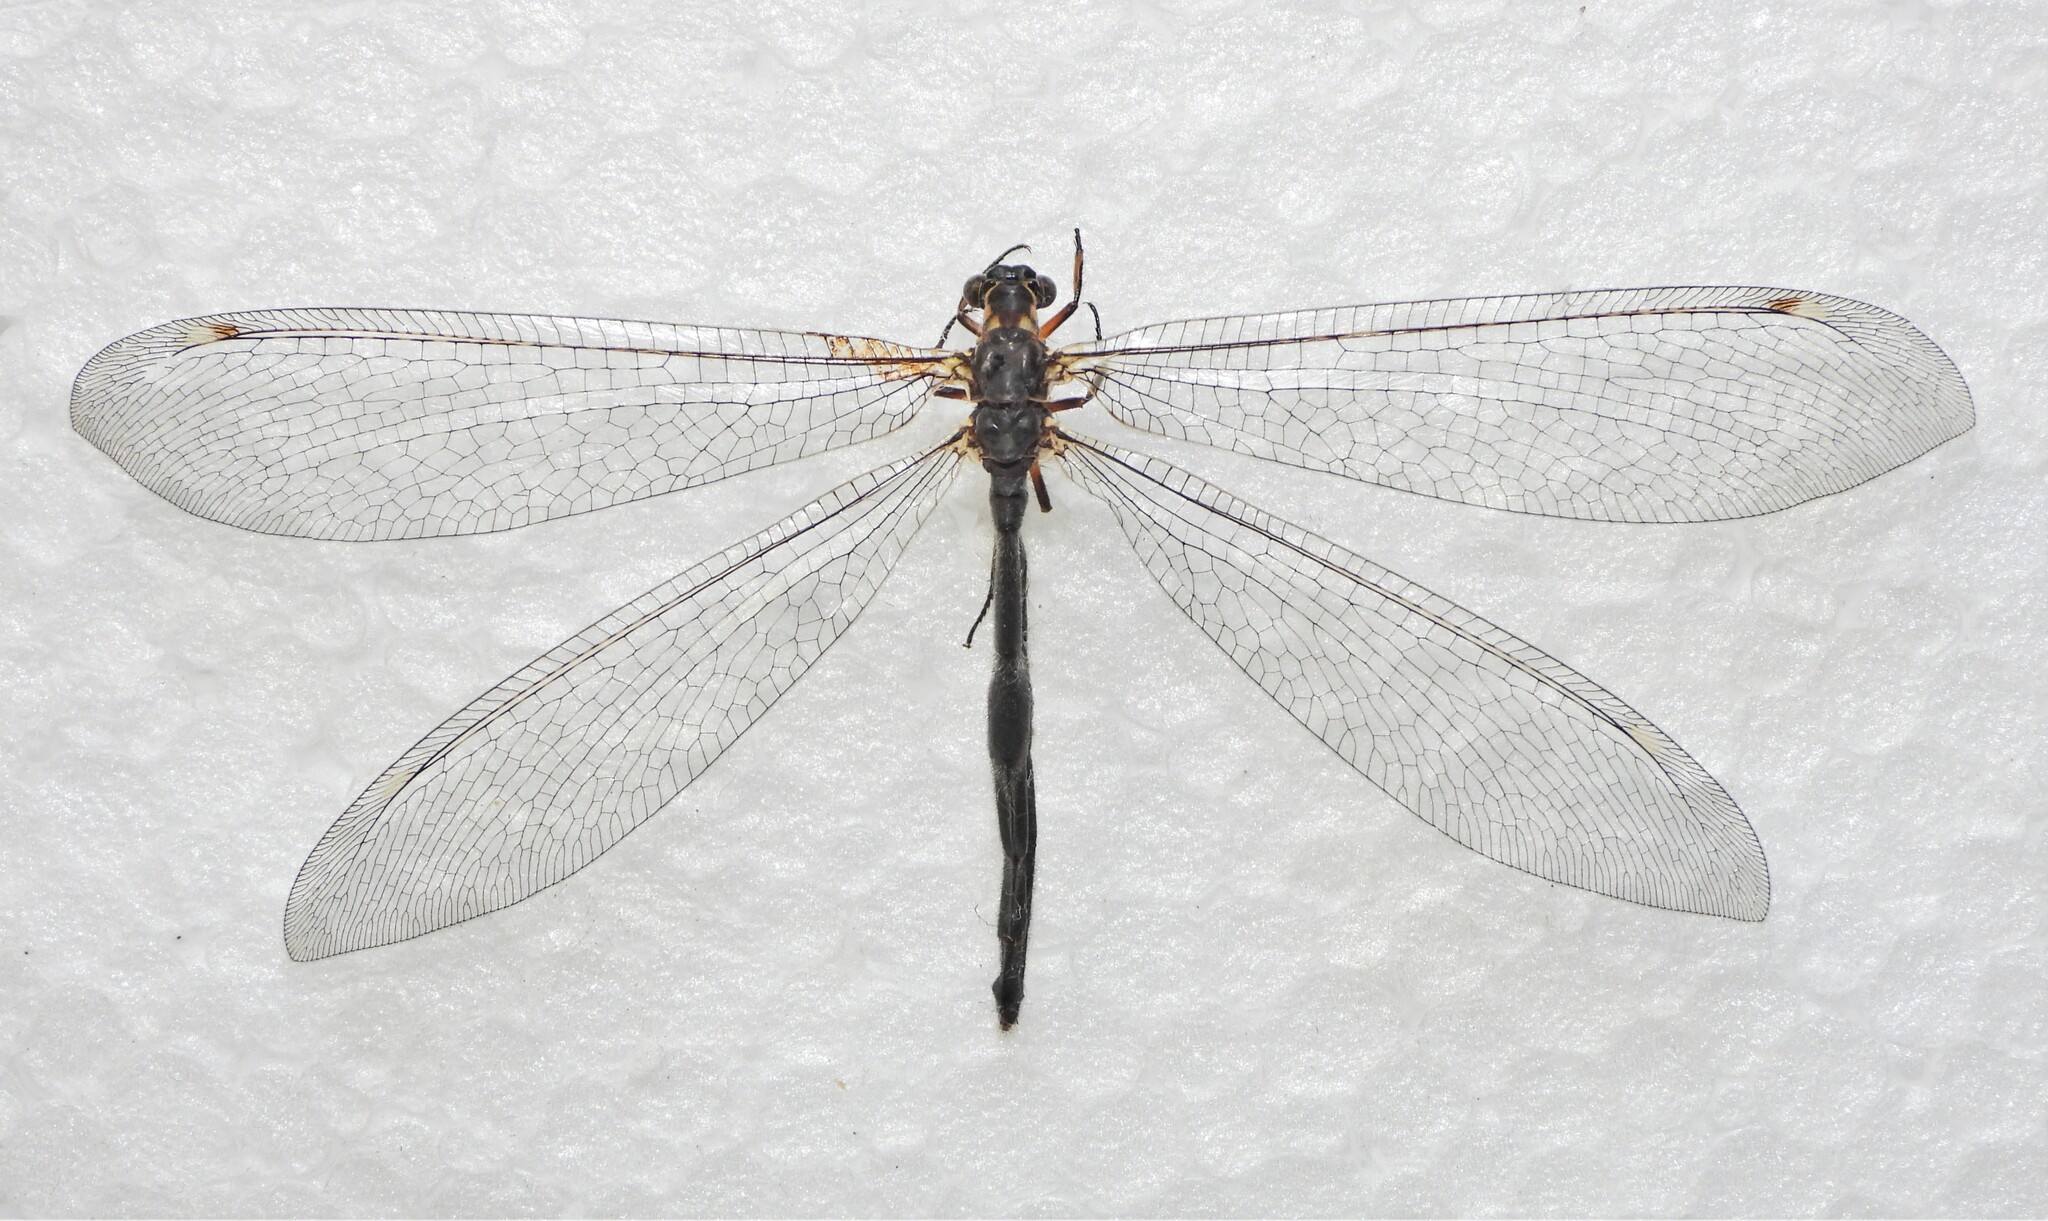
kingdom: Animalia
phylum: Arthropoda
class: Insecta
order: Neuroptera
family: Myrmeleontidae
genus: Myrmeleon
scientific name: Myrmeleon formicarius
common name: Ant-lion
